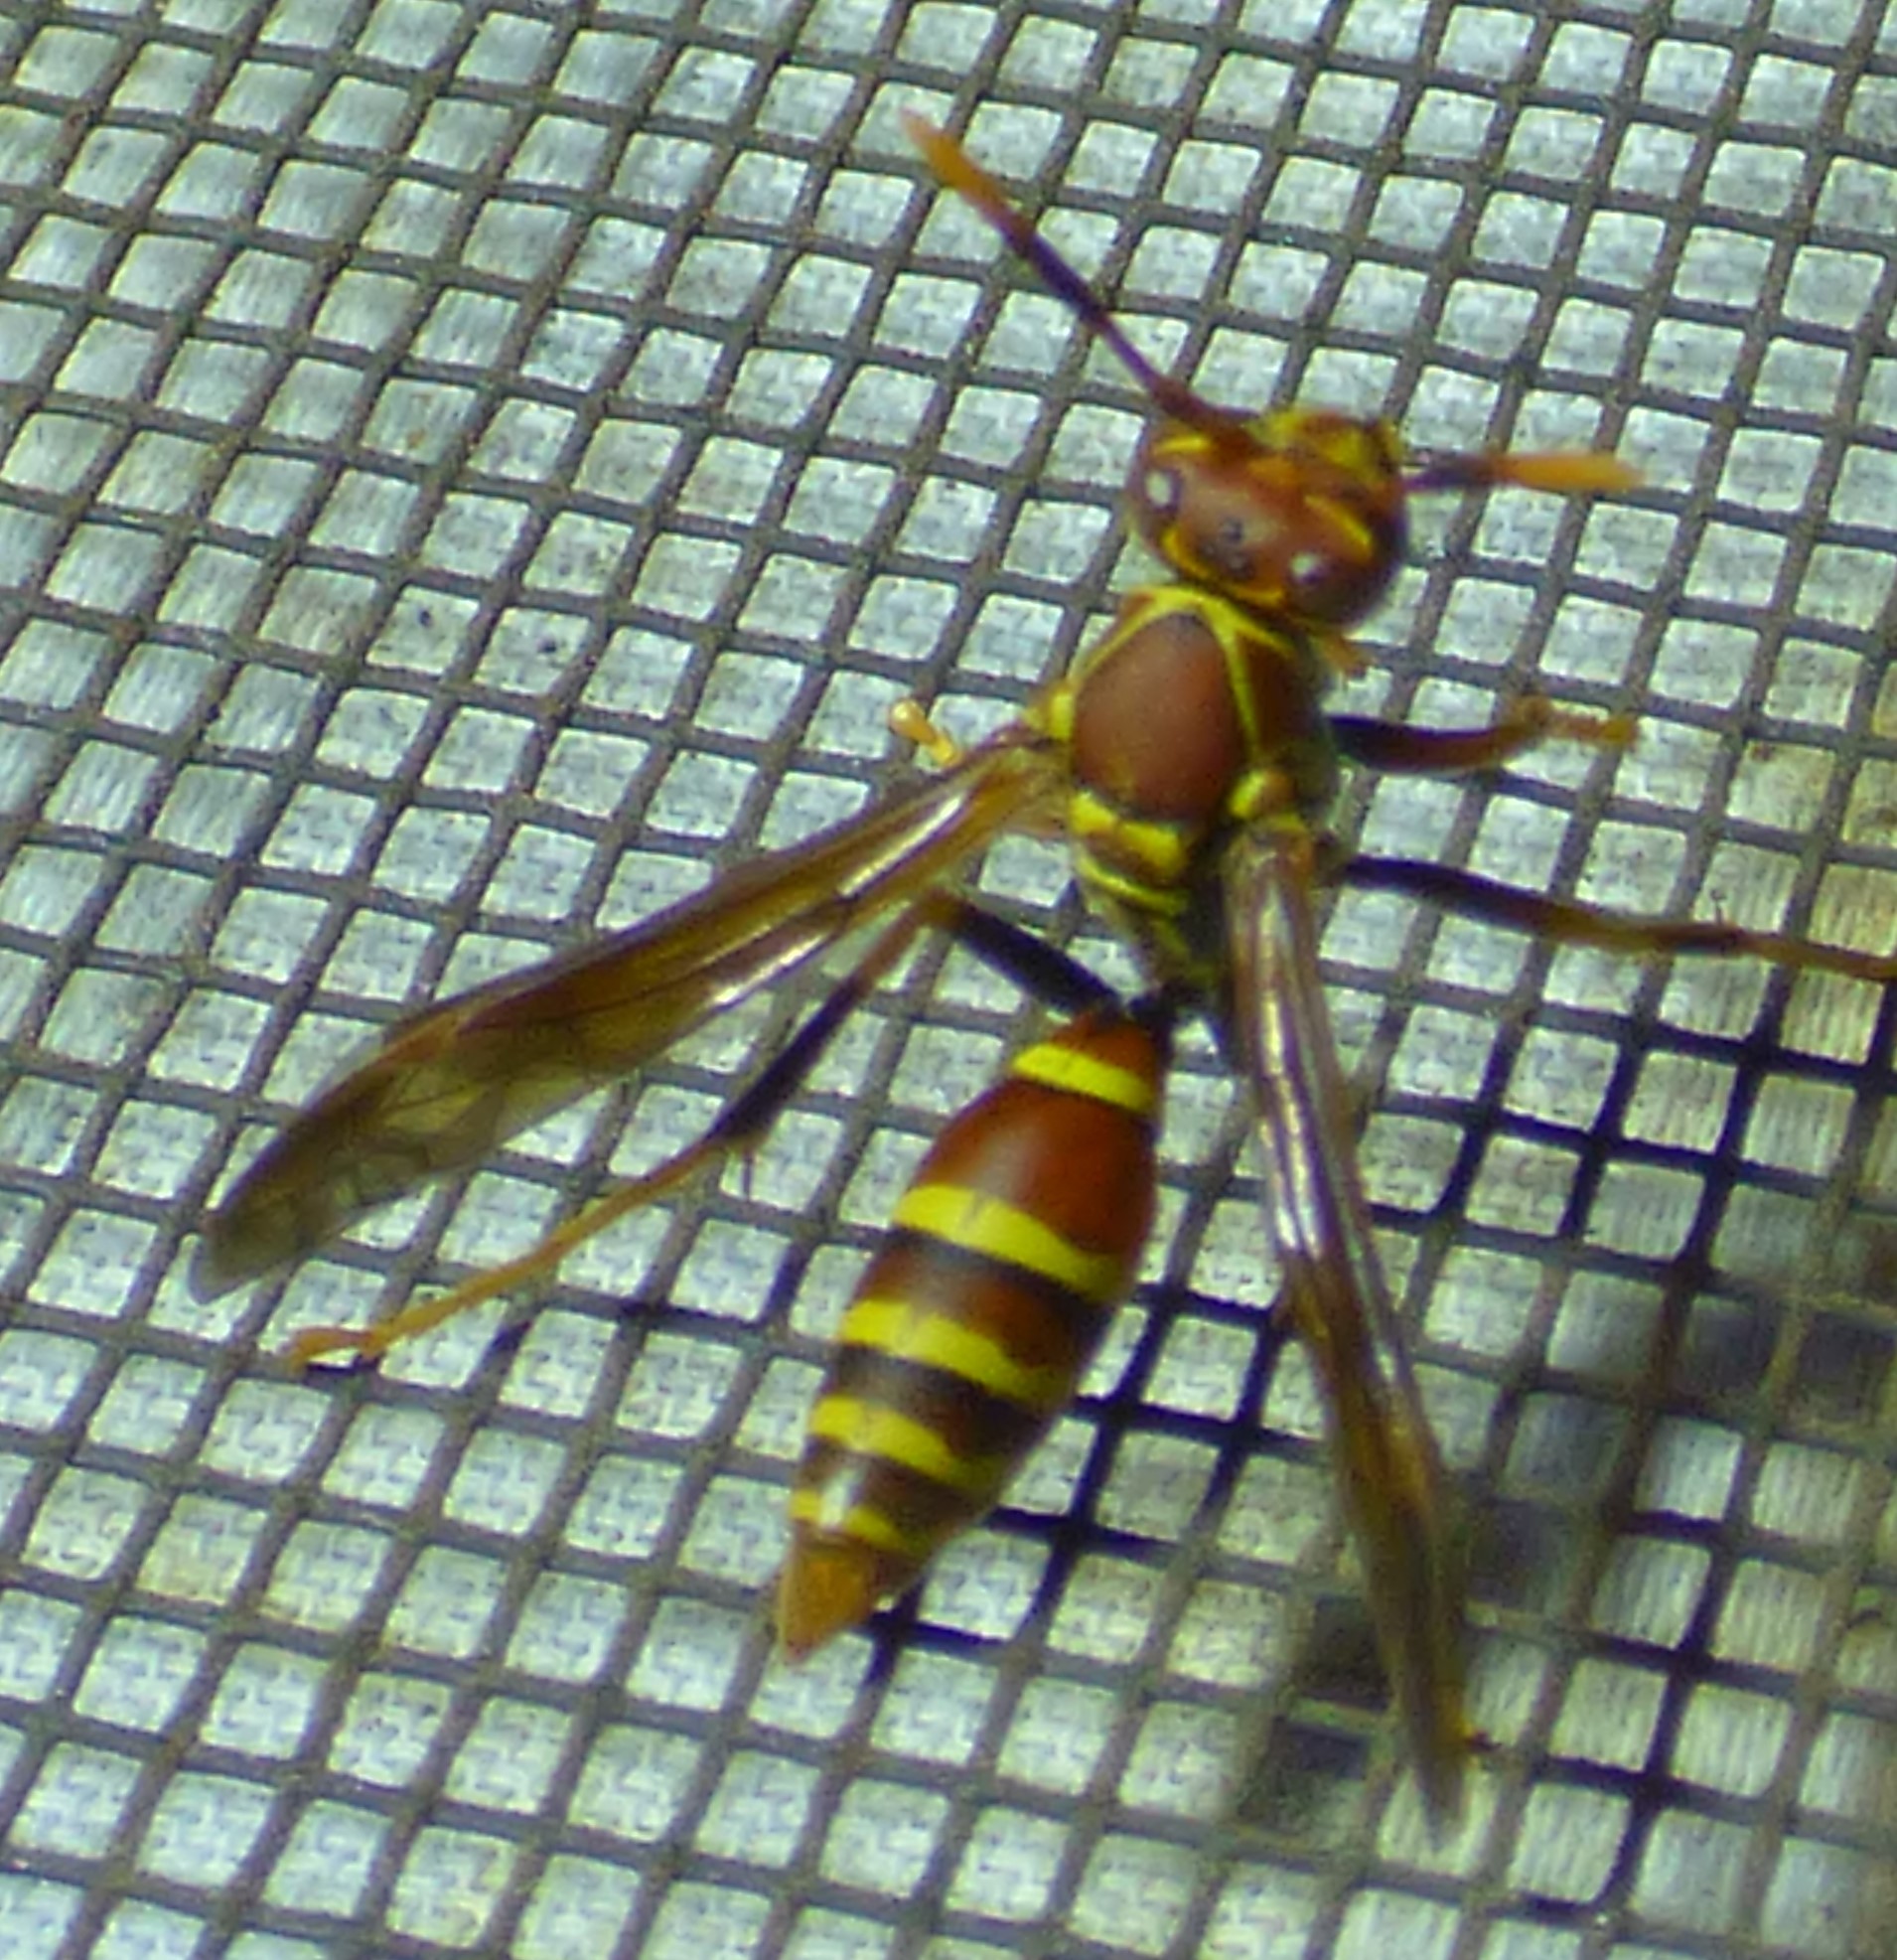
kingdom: Animalia
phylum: Arthropoda
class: Insecta
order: Hymenoptera
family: Eumenidae
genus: Polistes
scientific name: Polistes exclamans
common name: Paper wasp
